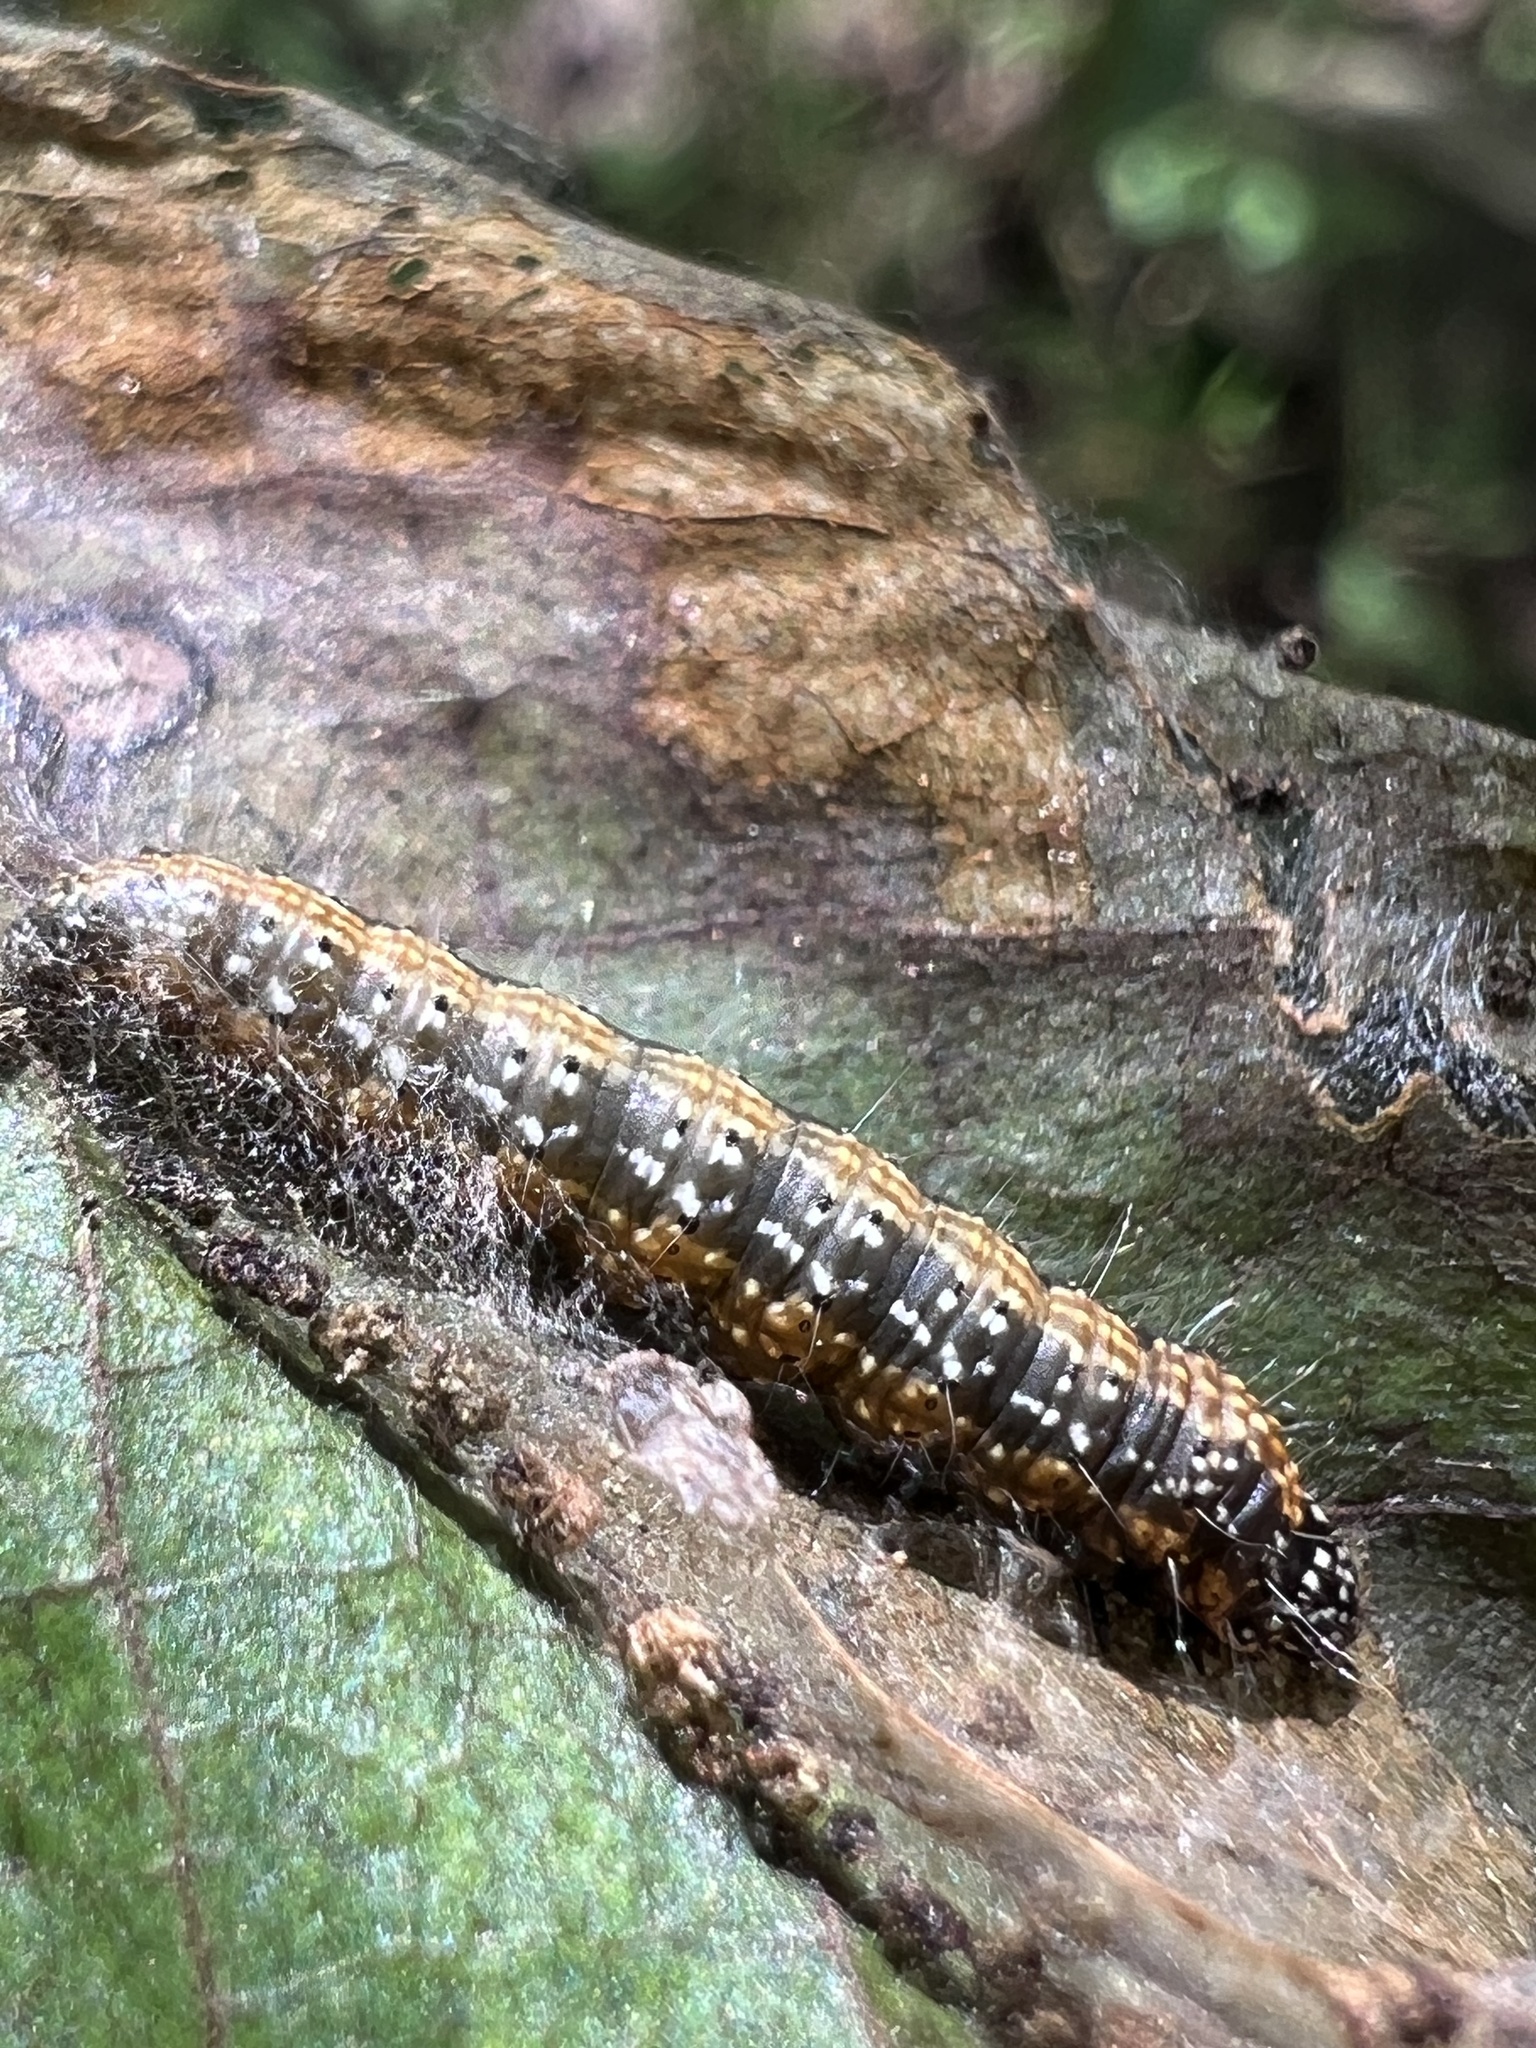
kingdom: Animalia
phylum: Arthropoda
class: Insecta
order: Lepidoptera
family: Pyralidae
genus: Omphalocera
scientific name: Omphalocera munroei
